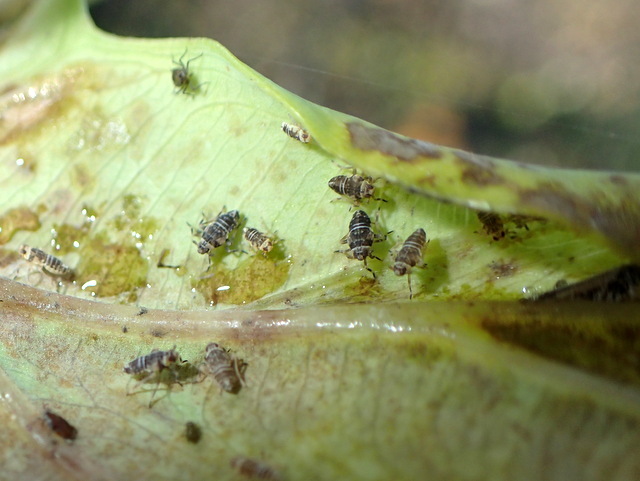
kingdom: Animalia
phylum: Arthropoda
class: Insecta
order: Hemiptera
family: Delphacidae
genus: Tarophagus
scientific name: Tarophagus colocasiae
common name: Taro planthopper
